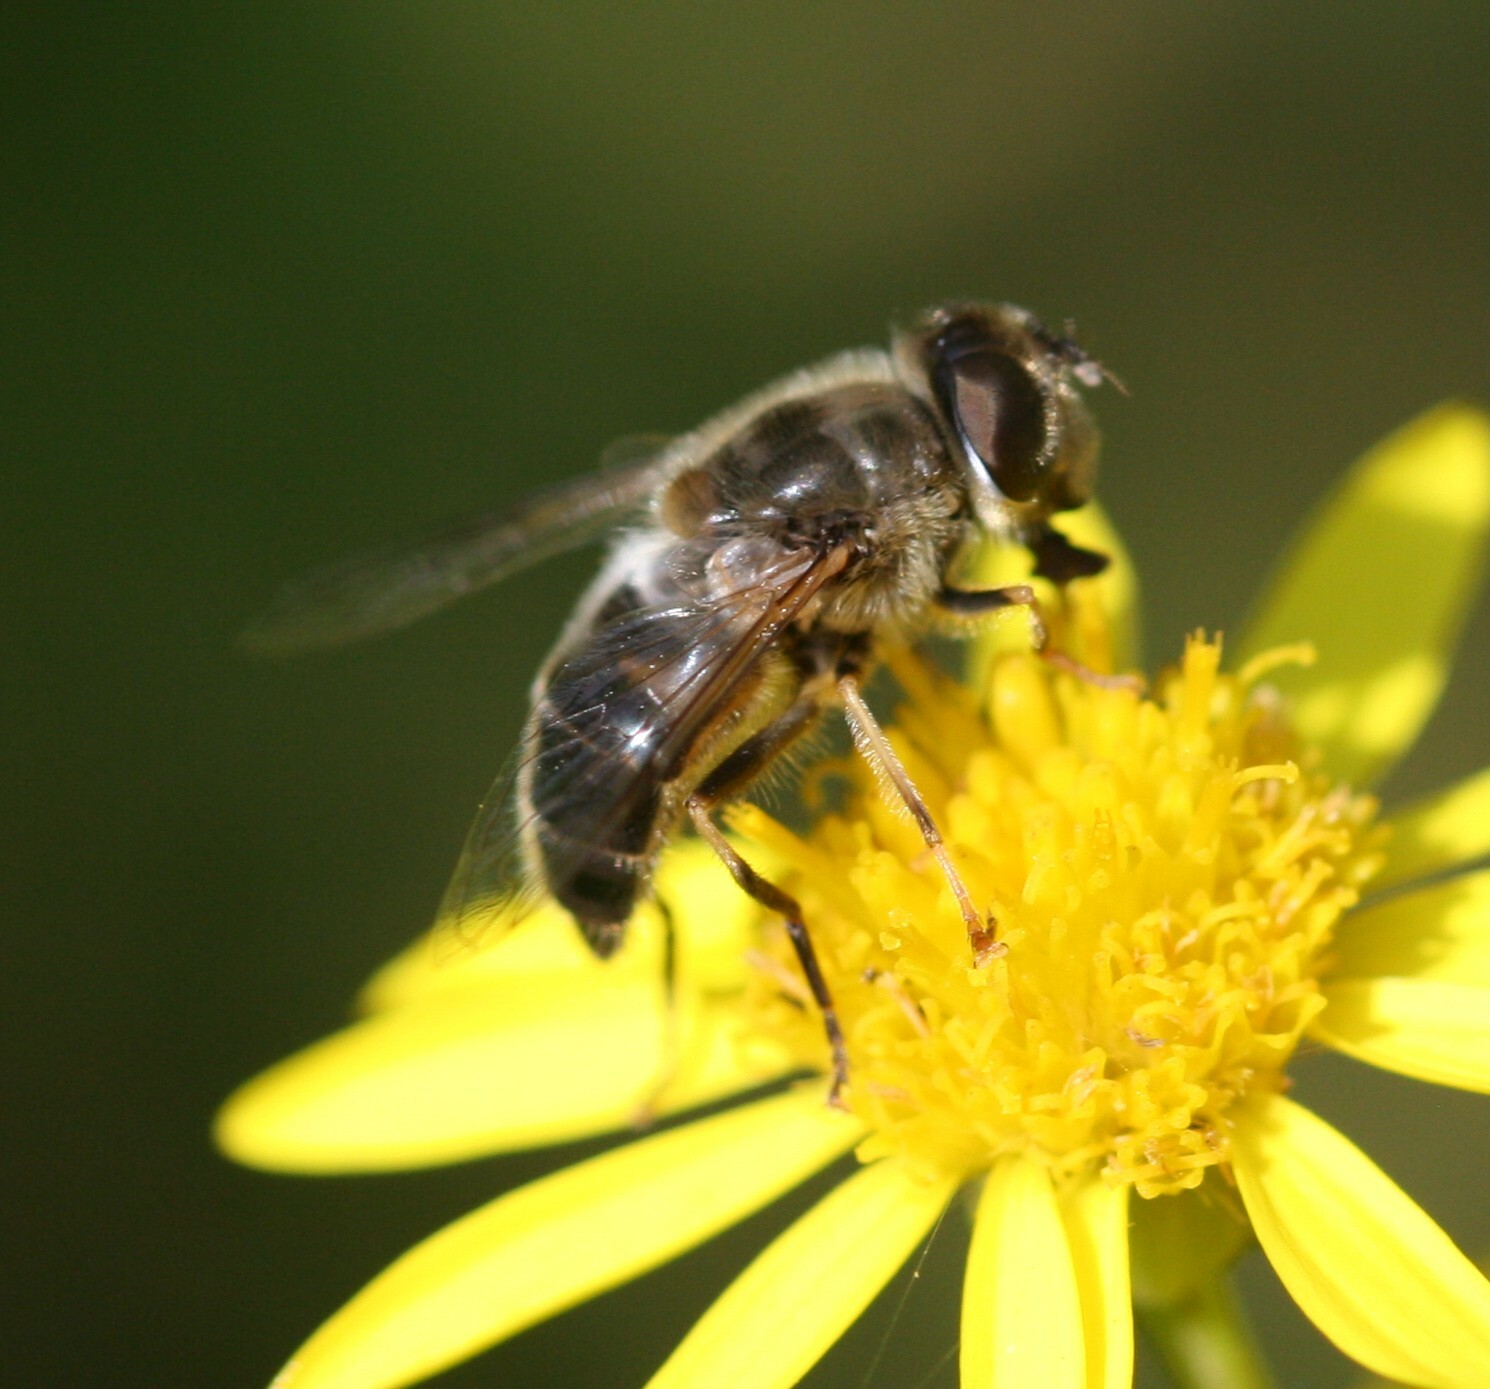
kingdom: Animalia
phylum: Arthropoda
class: Insecta
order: Diptera
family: Syrphidae
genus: Eristalis
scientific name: Eristalis pertinax
